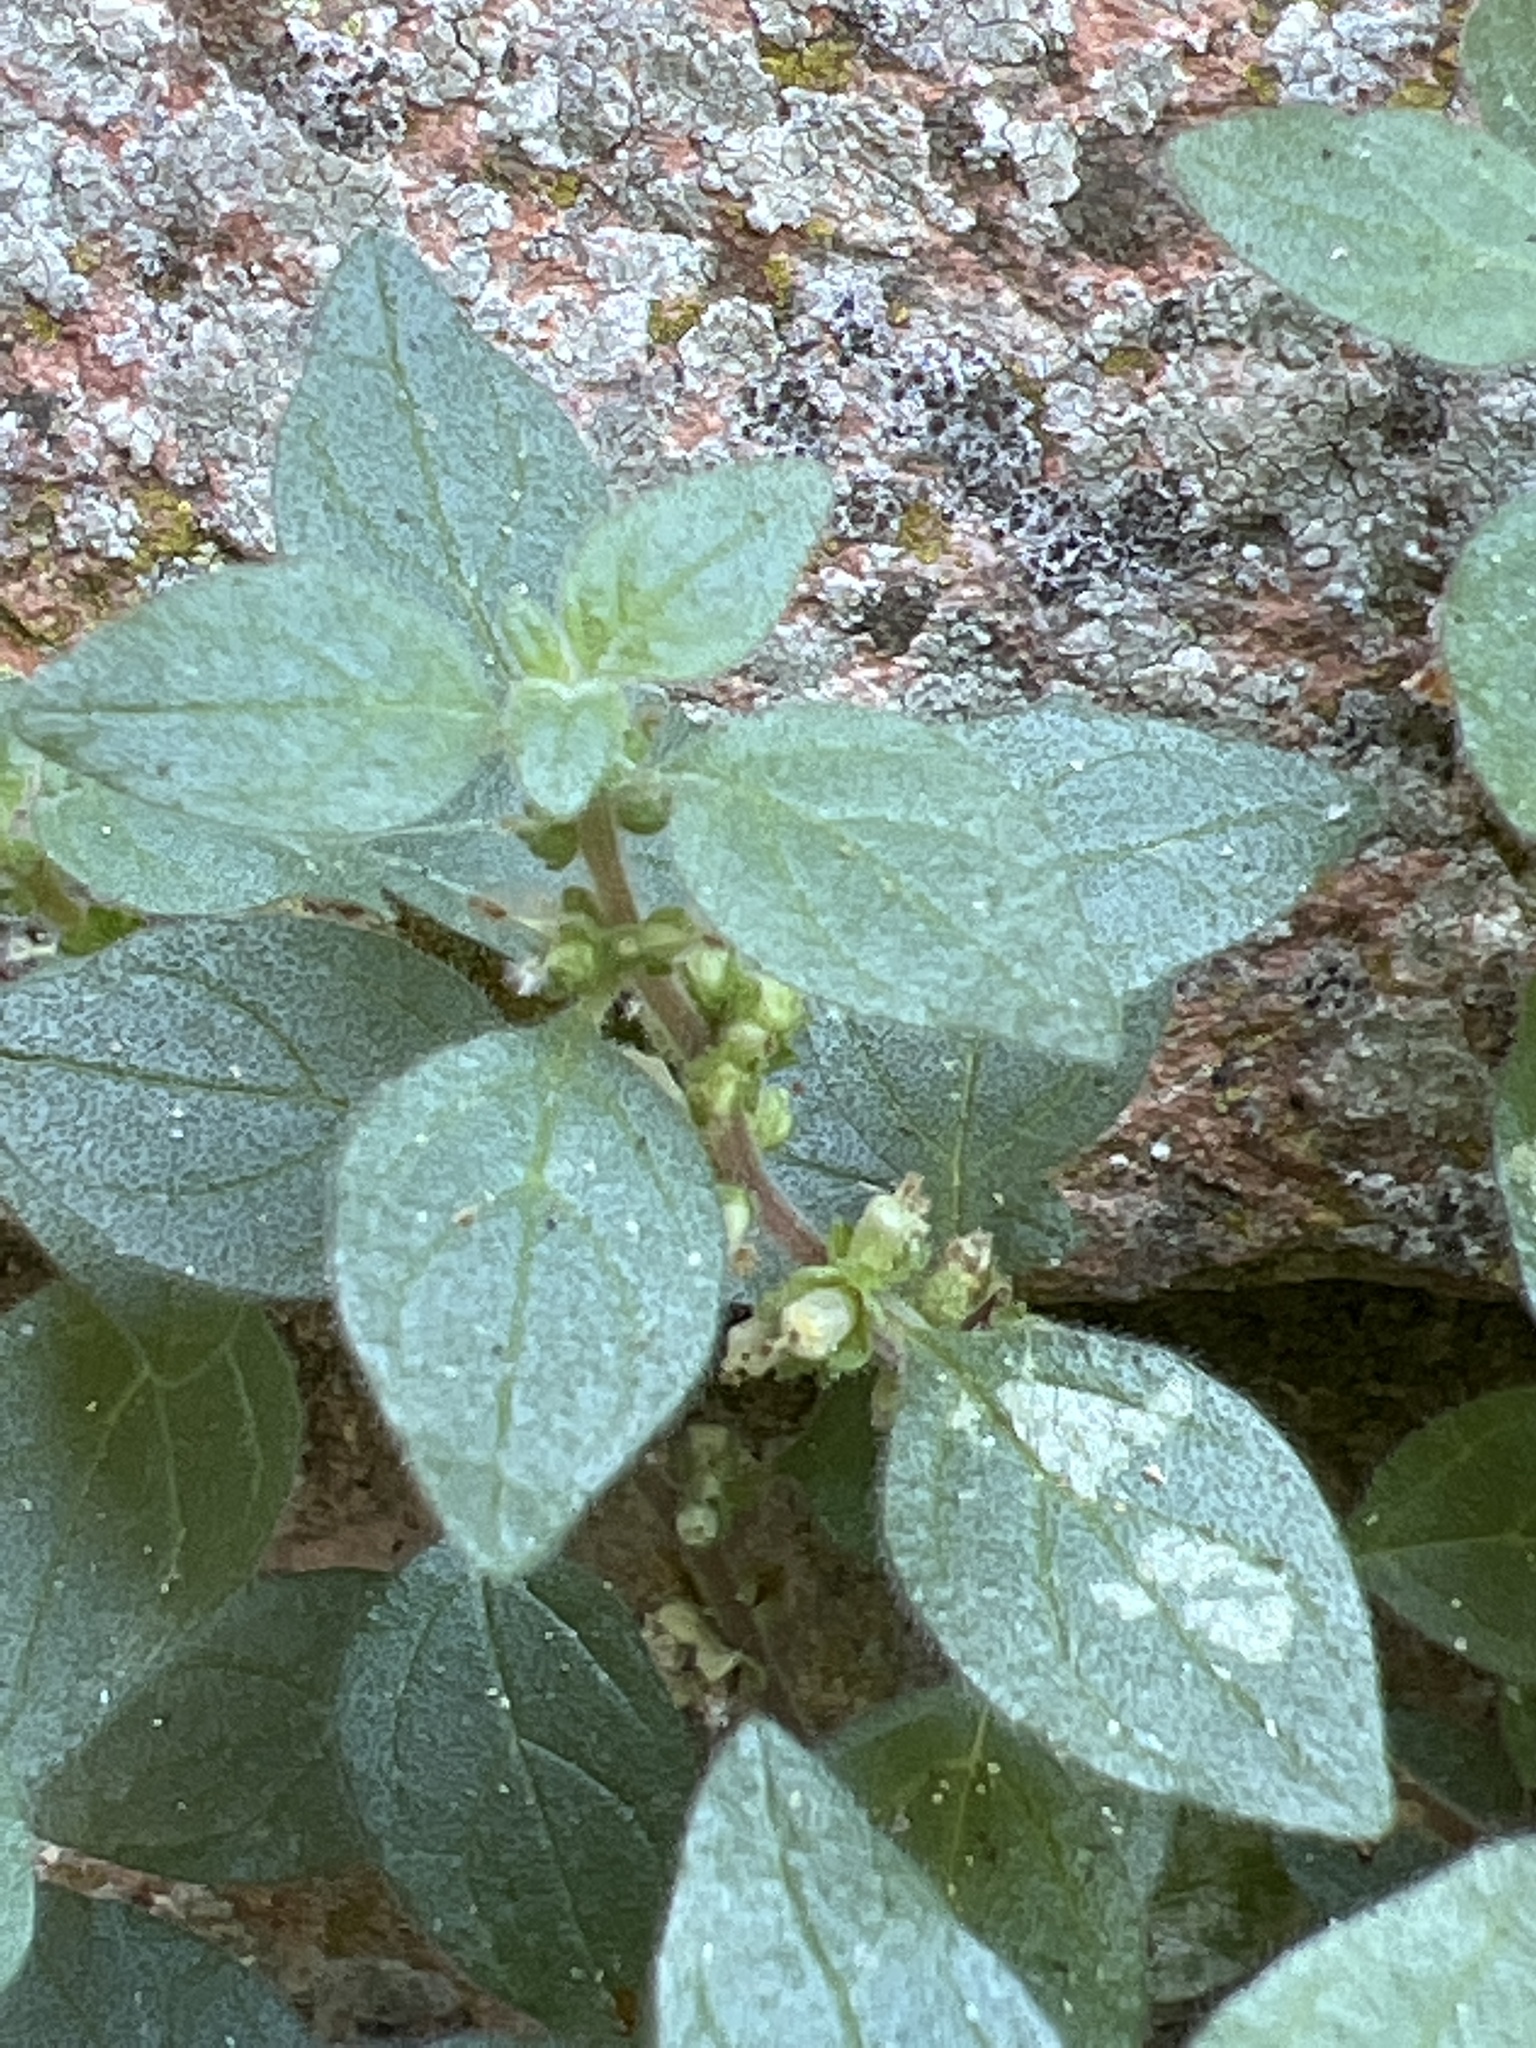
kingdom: Plantae
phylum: Tracheophyta
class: Magnoliopsida
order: Rosales
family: Urticaceae
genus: Parietaria
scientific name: Parietaria judaica
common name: Pellitory-of-the-wall
